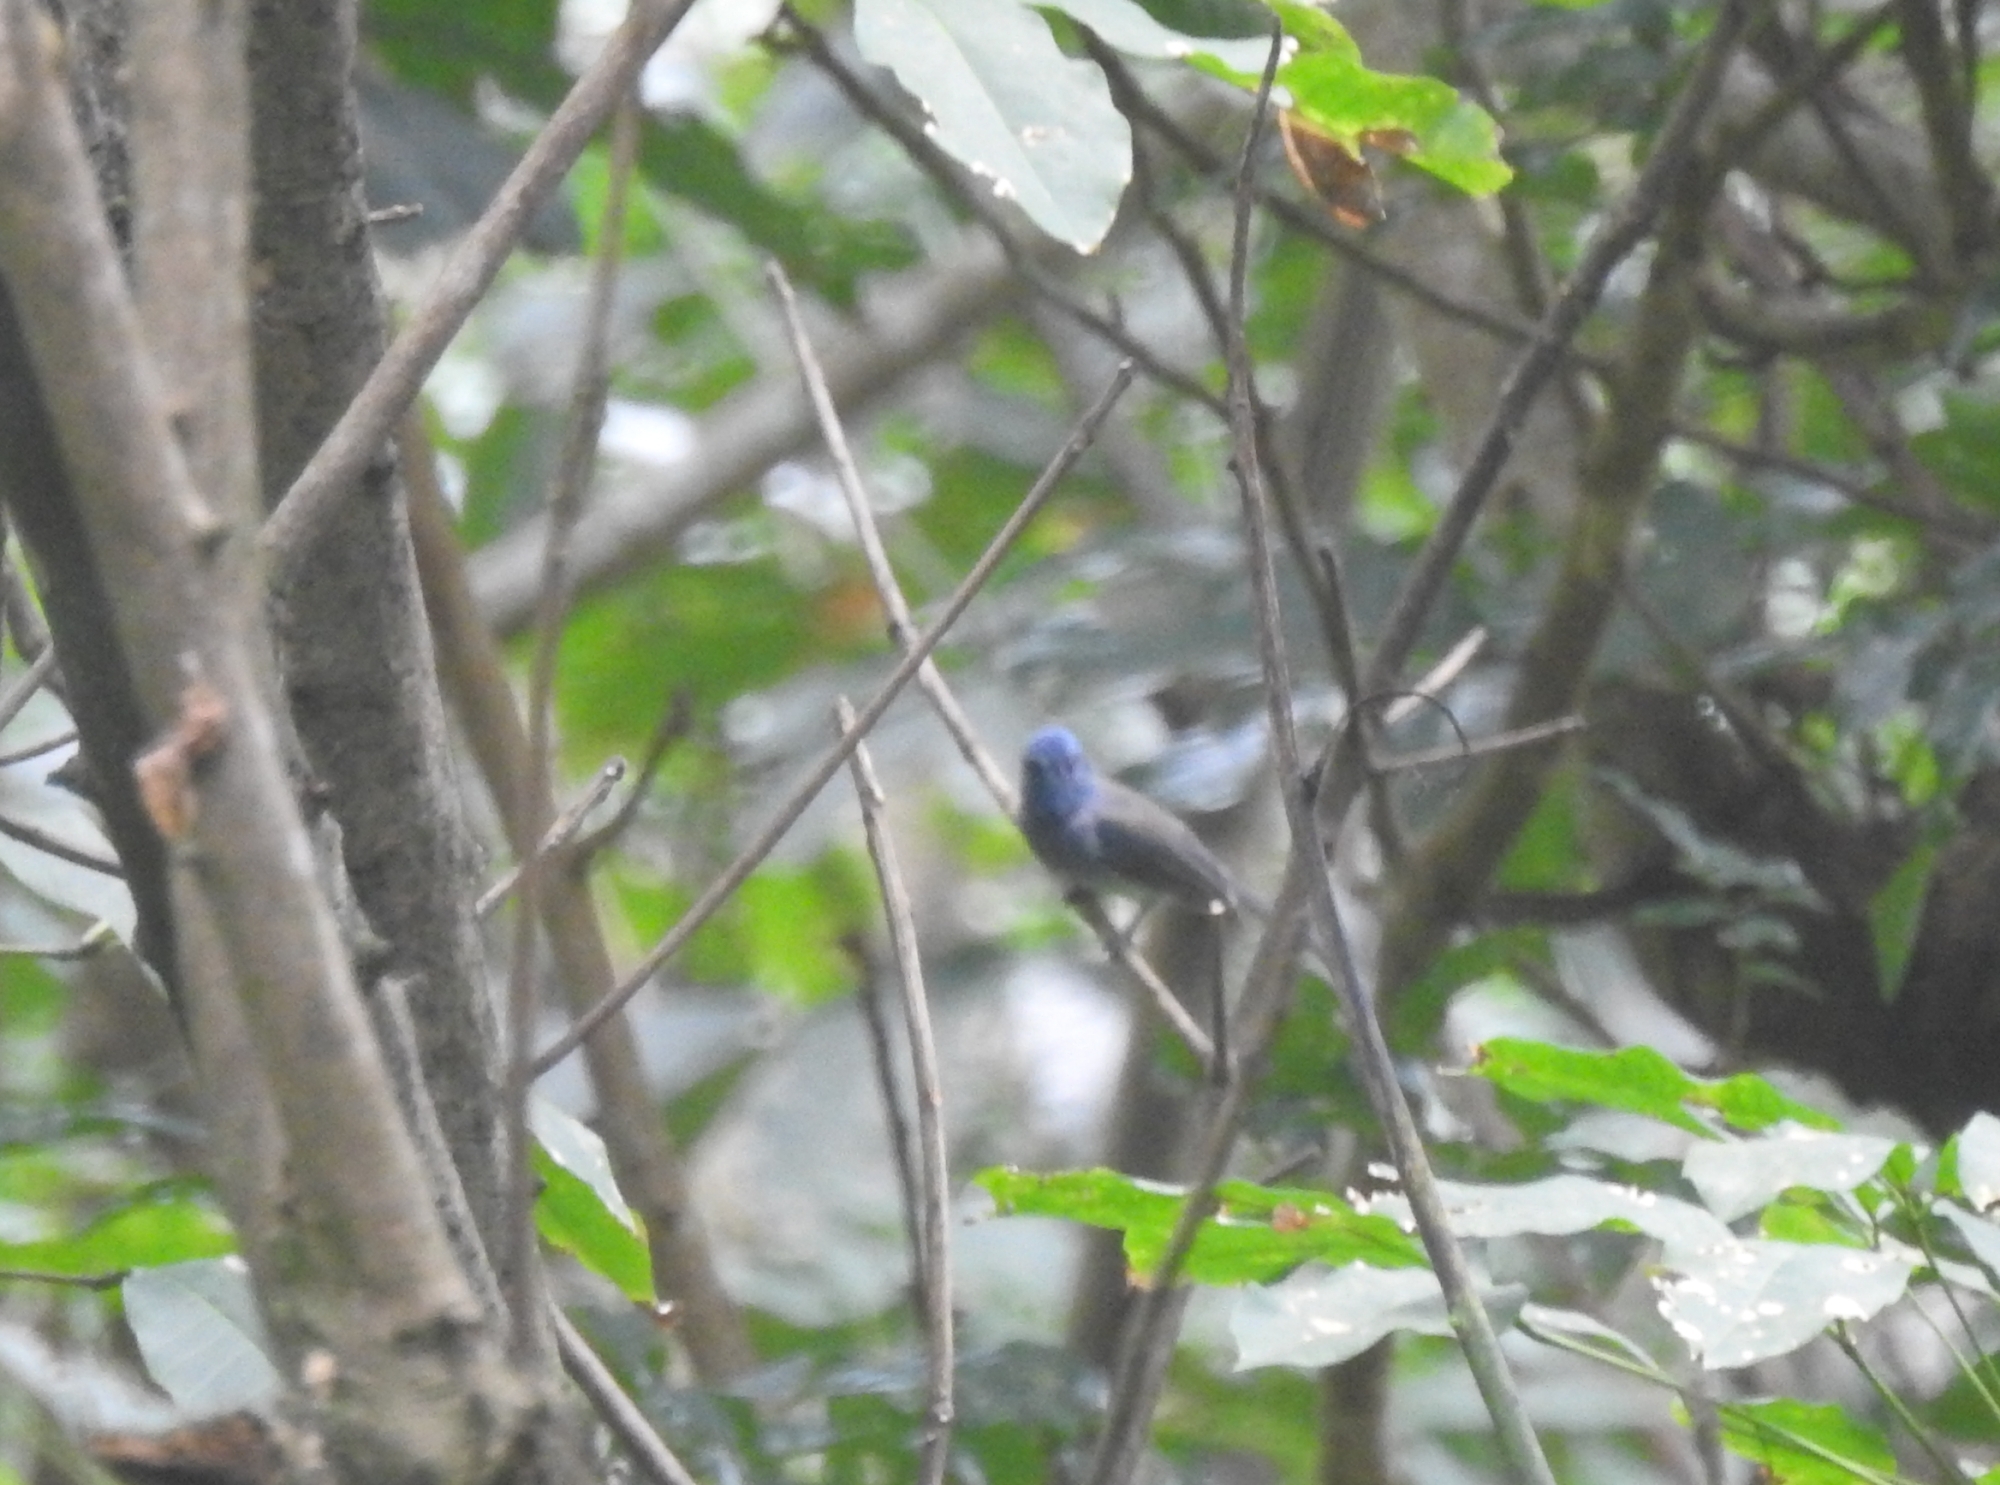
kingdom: Animalia
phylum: Chordata
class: Aves
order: Passeriformes
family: Monarchidae
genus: Hypothymis
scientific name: Hypothymis azurea
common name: Black-naped monarch
